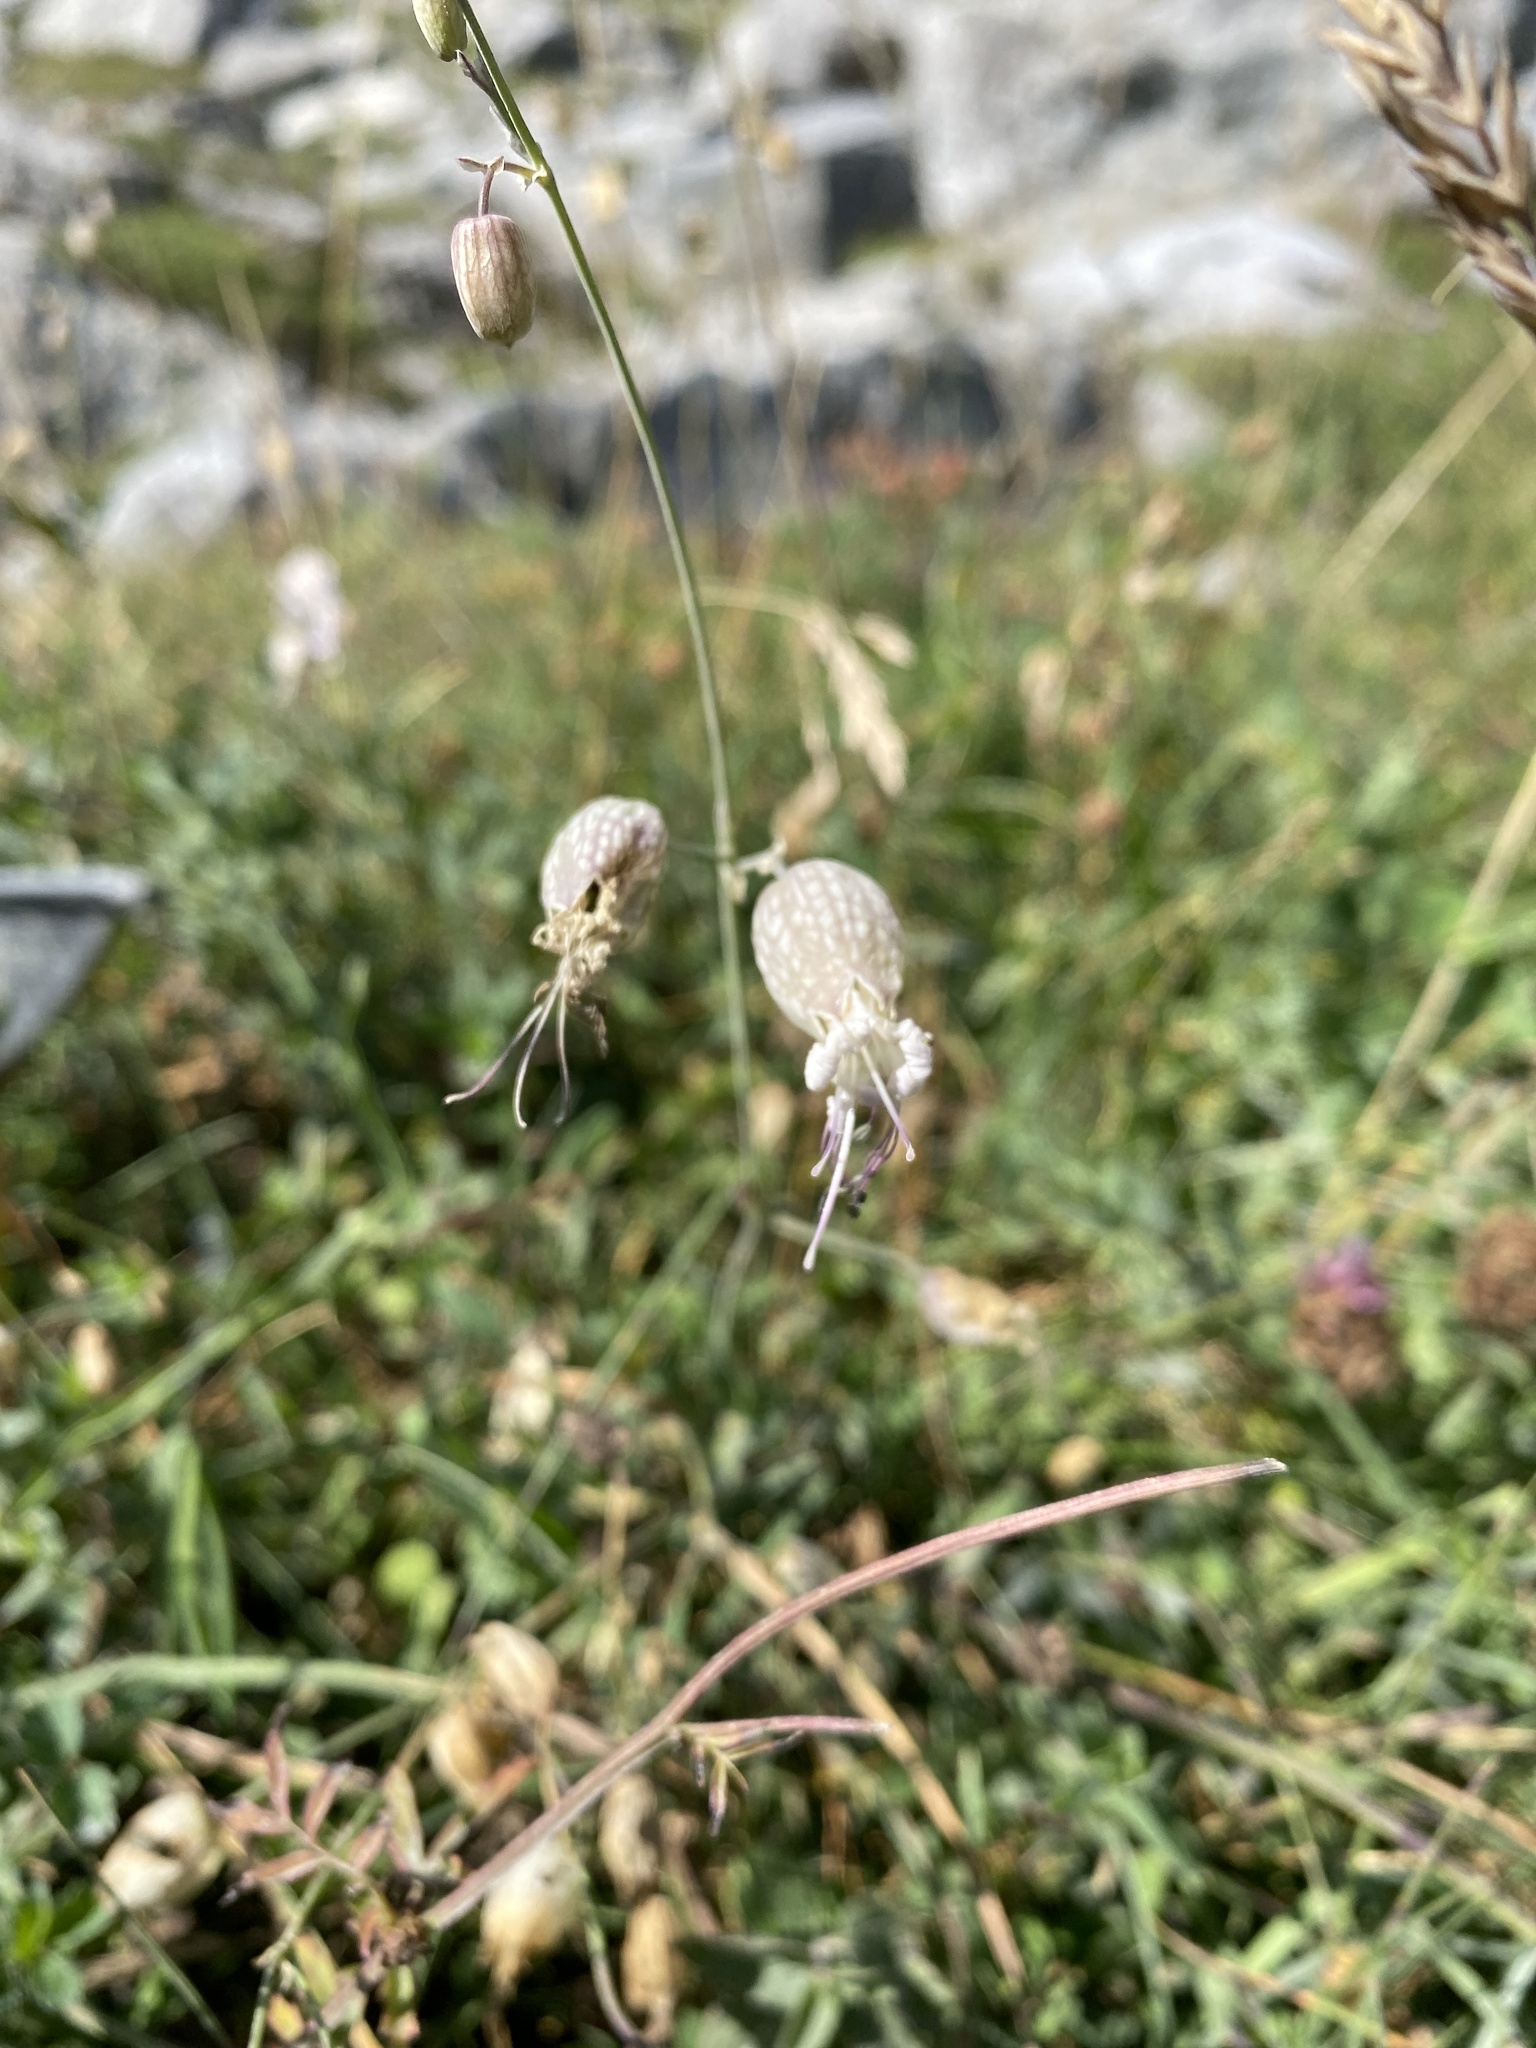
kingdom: Plantae
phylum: Tracheophyta
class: Magnoliopsida
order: Caryophyllales
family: Caryophyllaceae
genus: Silene
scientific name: Silene vulgaris
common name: Bladder campion
